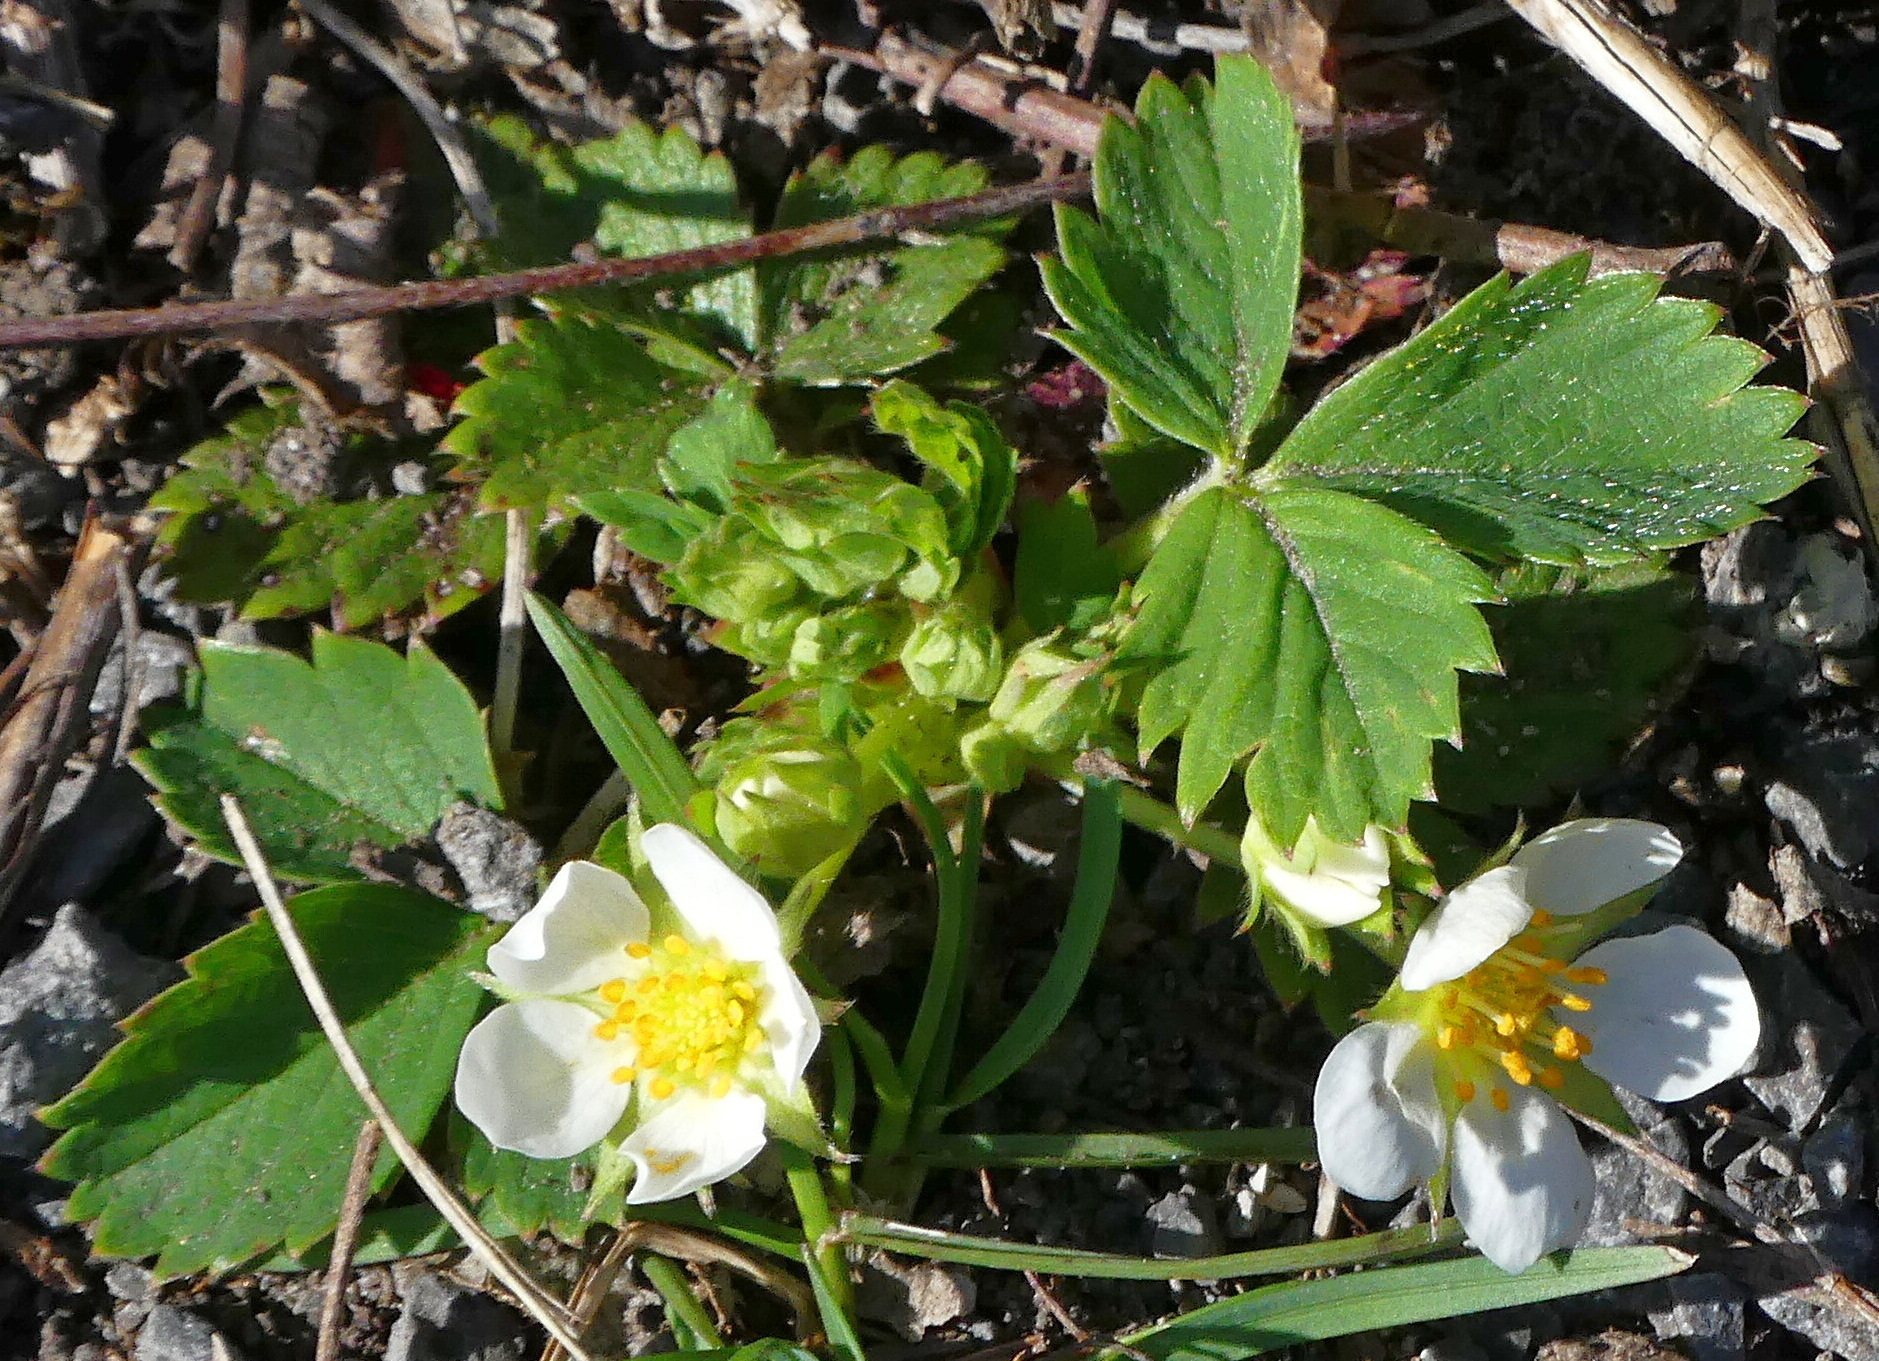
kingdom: Plantae
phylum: Tracheophyta
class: Magnoliopsida
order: Rosales
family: Rosaceae
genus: Fragaria
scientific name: Fragaria vesca
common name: Wild strawberry
